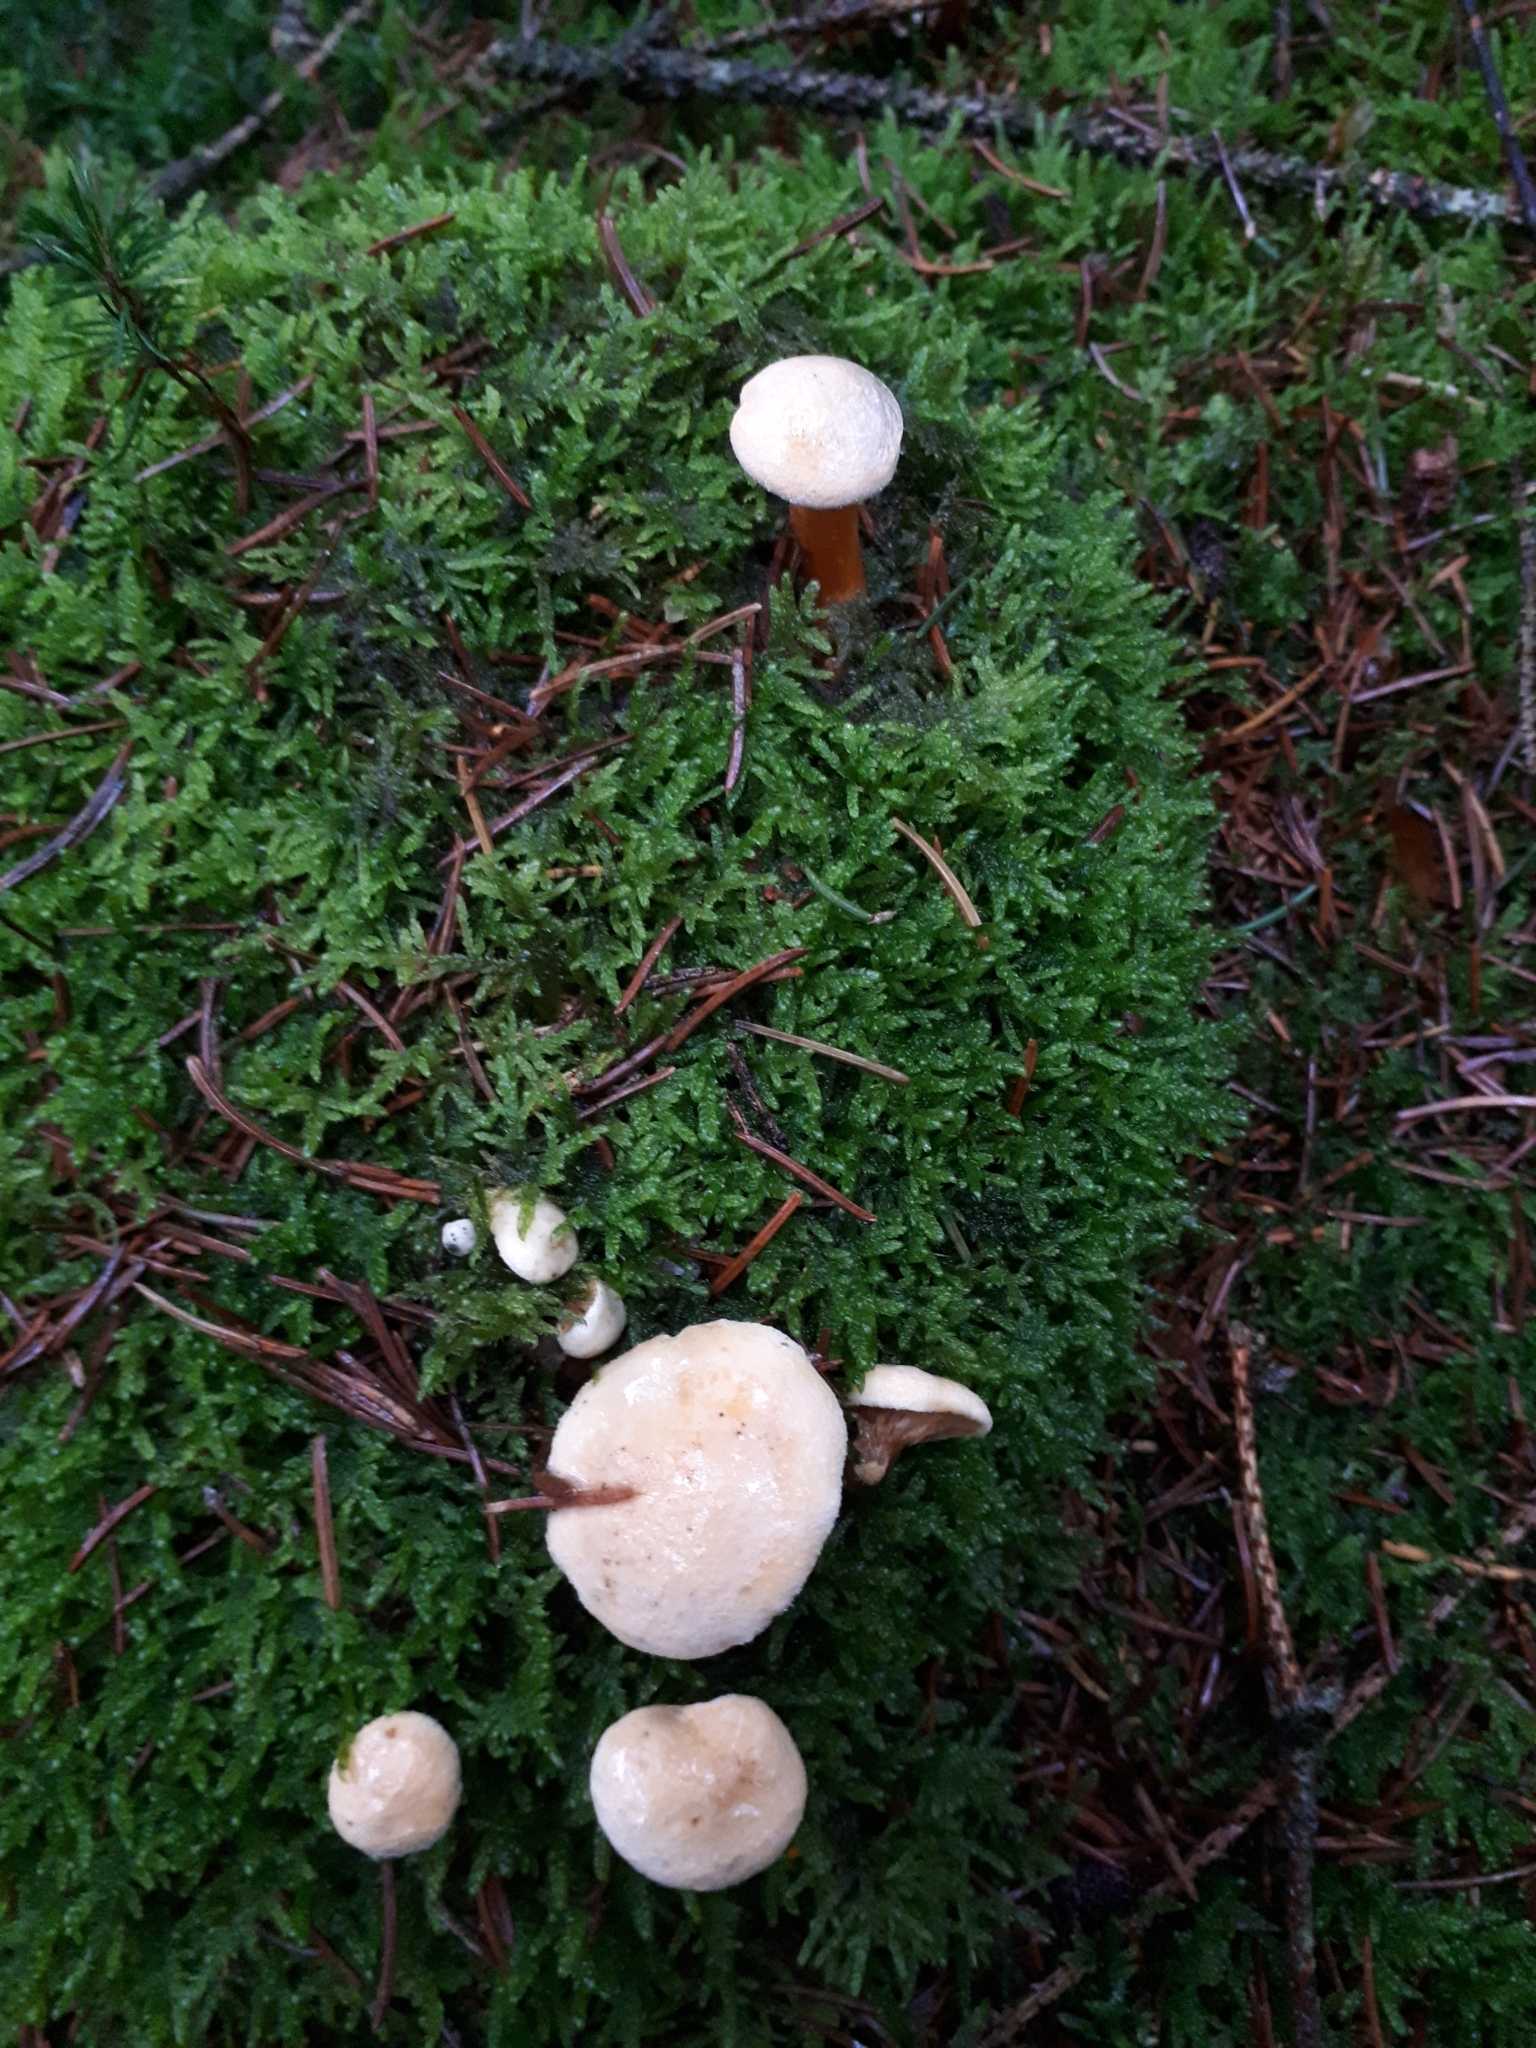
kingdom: Fungi
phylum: Basidiomycota
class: Agaricomycetes
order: Boletales
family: Hygrophoropsidaceae
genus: Hygrophoropsis
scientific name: Hygrophoropsis aurantiaca
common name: False chanterelle
